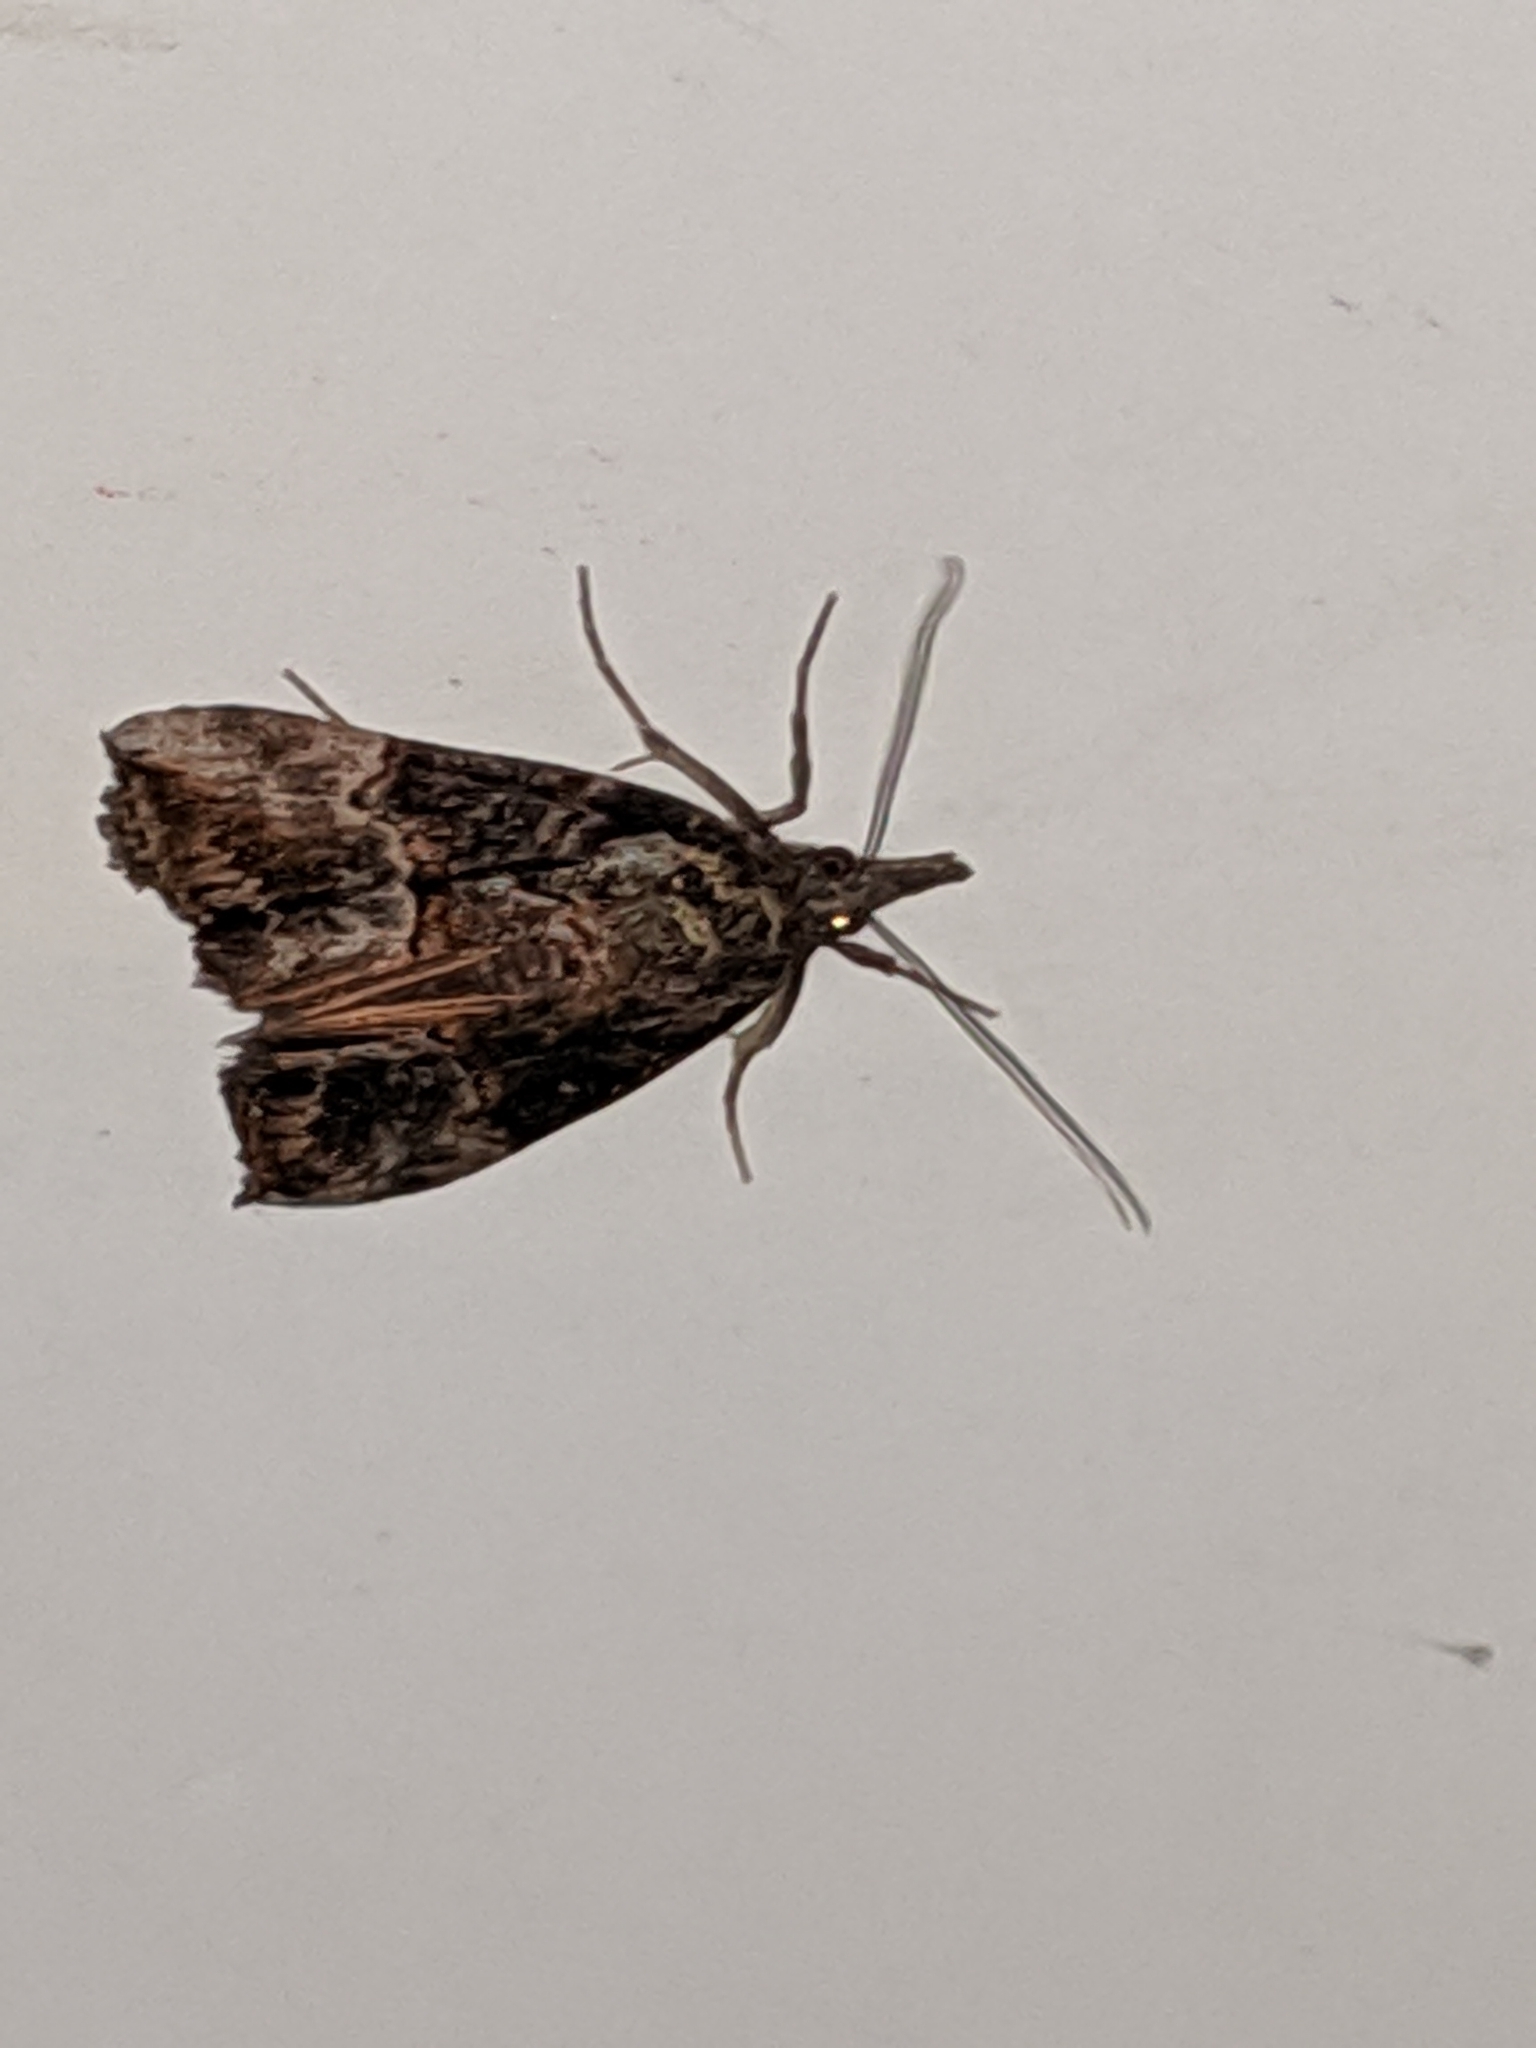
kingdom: Animalia
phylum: Arthropoda
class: Insecta
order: Lepidoptera
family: Erebidae
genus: Hypena
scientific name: Hypena scabra
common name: Green cloverworm
